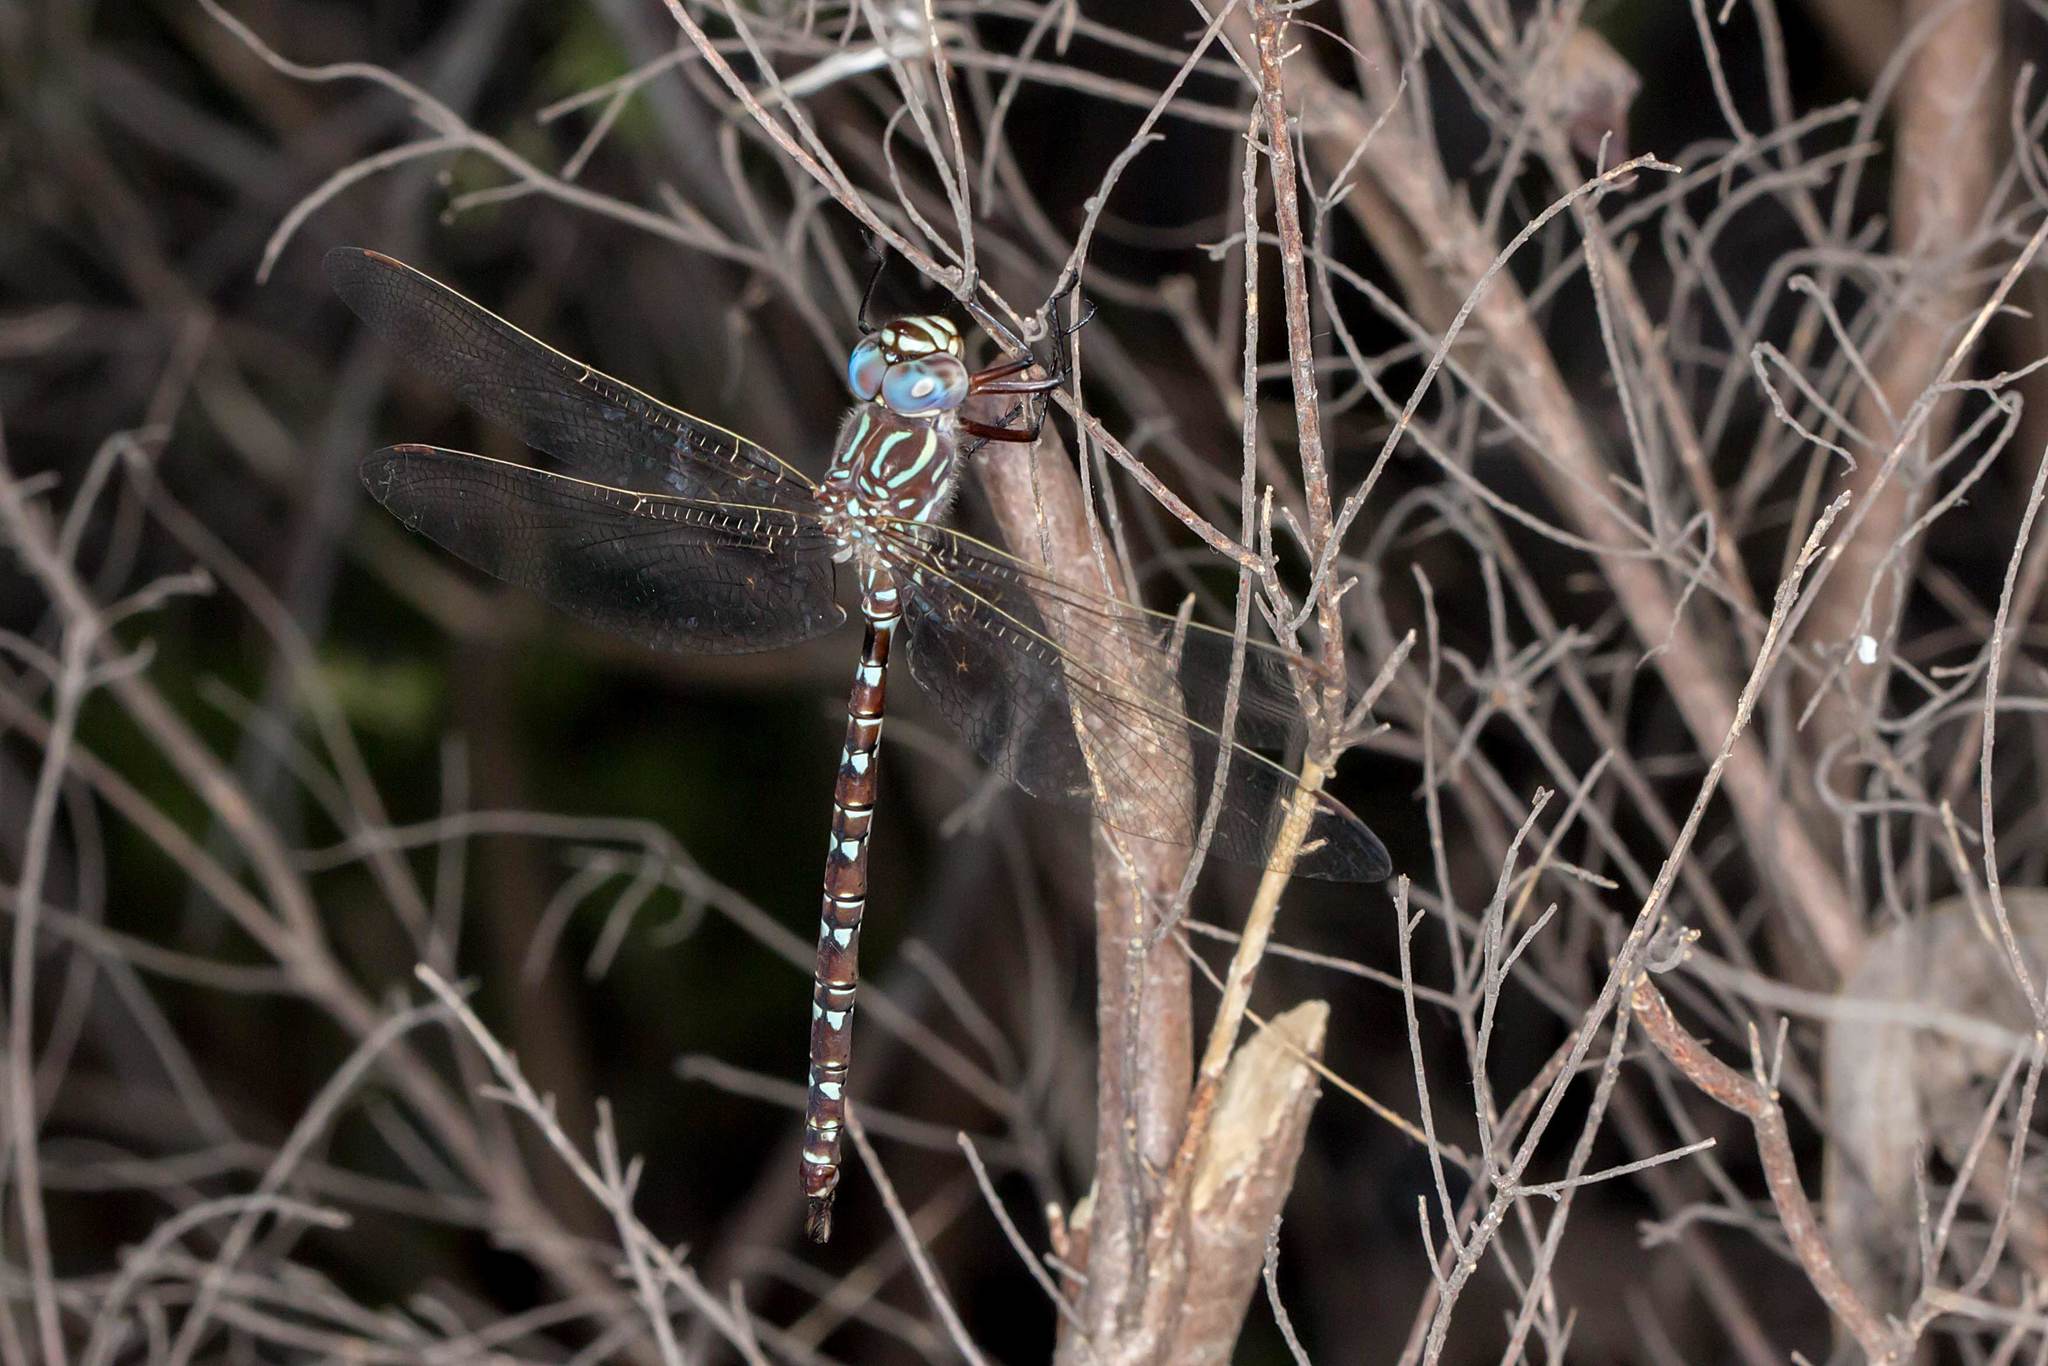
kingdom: Animalia
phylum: Arthropoda
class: Insecta
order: Odonata
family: Aeshnidae
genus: Austroaeschna
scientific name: Austroaeschna unicornis
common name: Unicorn darner
